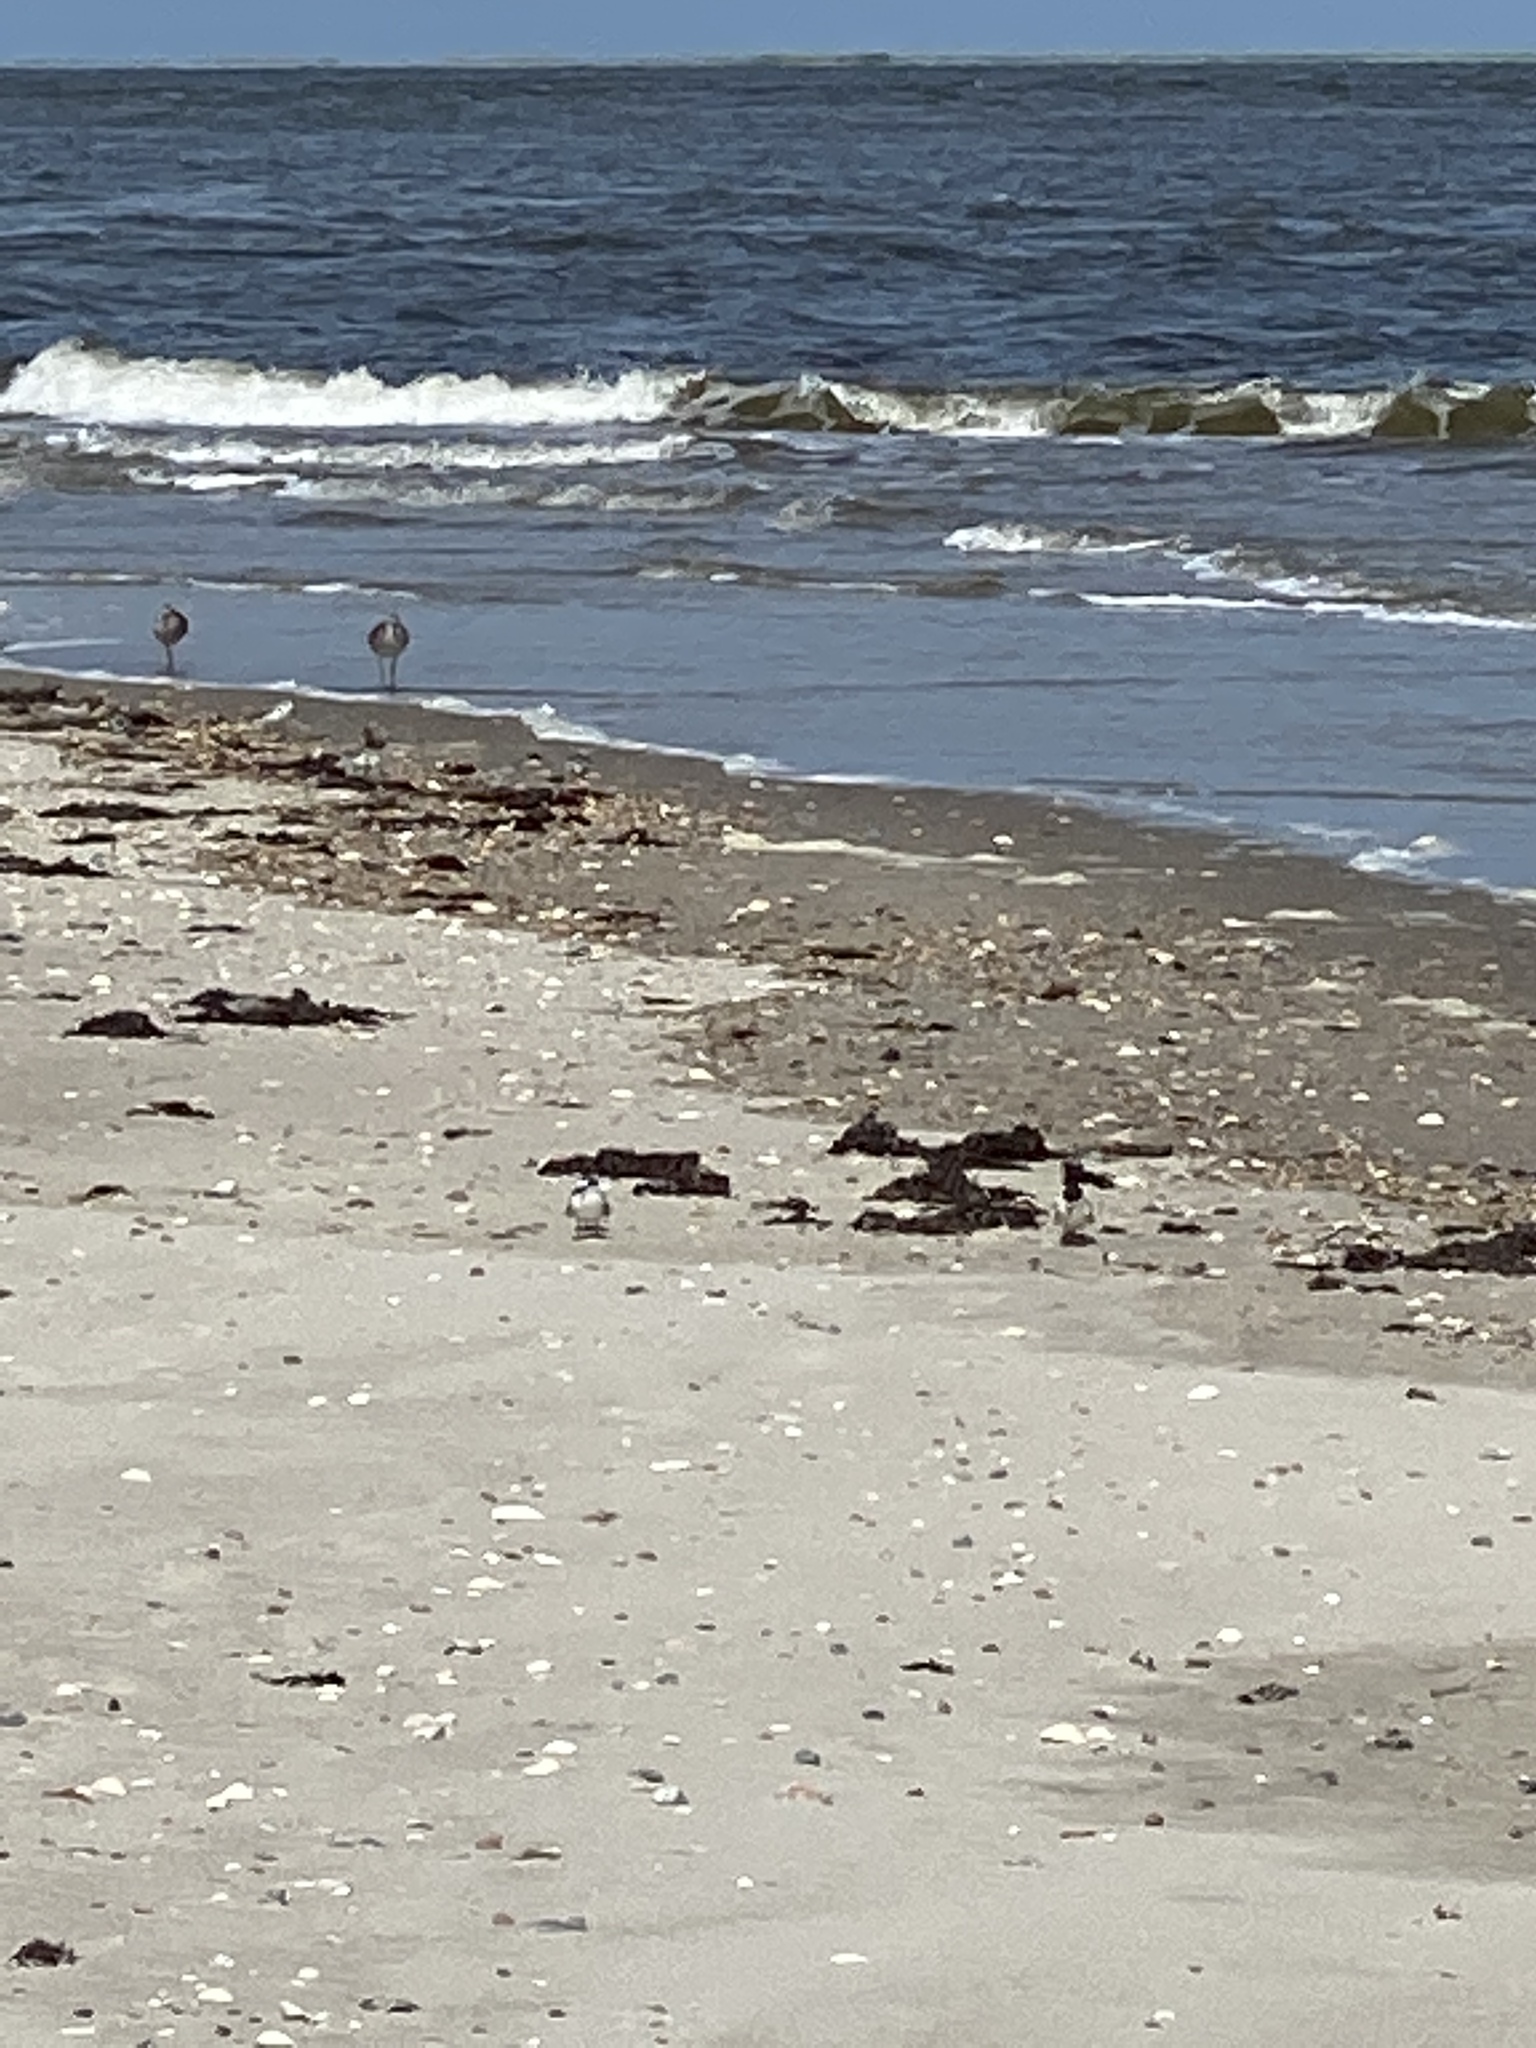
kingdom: Animalia
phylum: Chordata
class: Aves
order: Charadriiformes
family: Laridae
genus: Sternula
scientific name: Sternula antillarum
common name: Least tern
